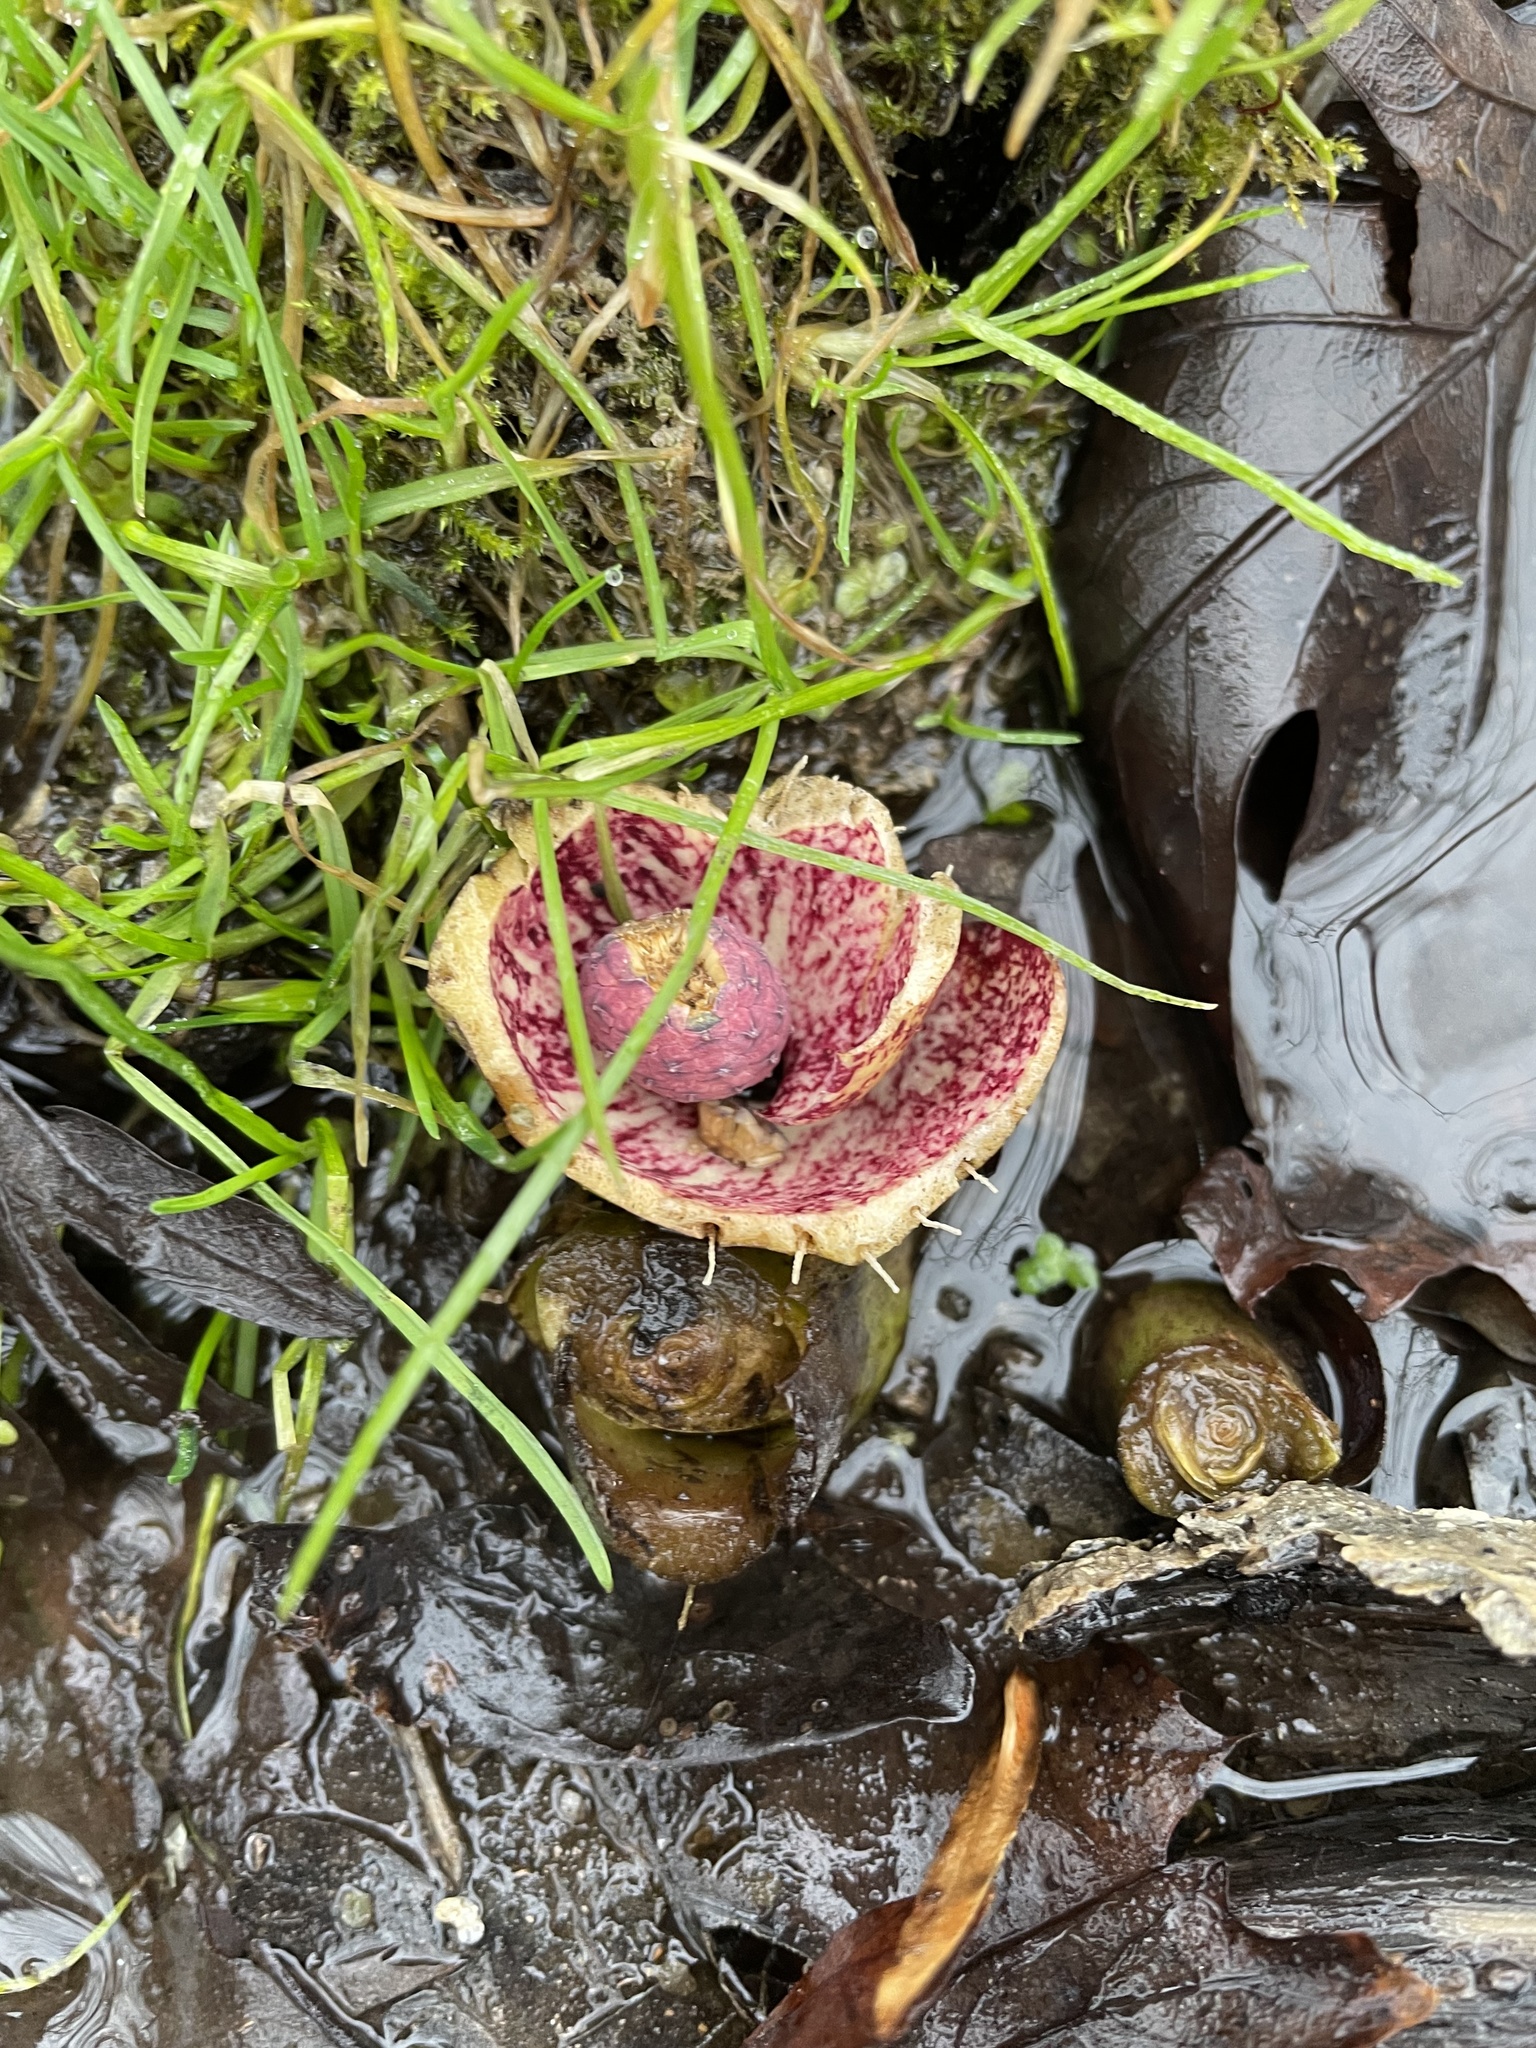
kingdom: Plantae
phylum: Tracheophyta
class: Liliopsida
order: Alismatales
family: Araceae
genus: Symplocarpus
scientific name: Symplocarpus foetidus
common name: Eastern skunk cabbage
